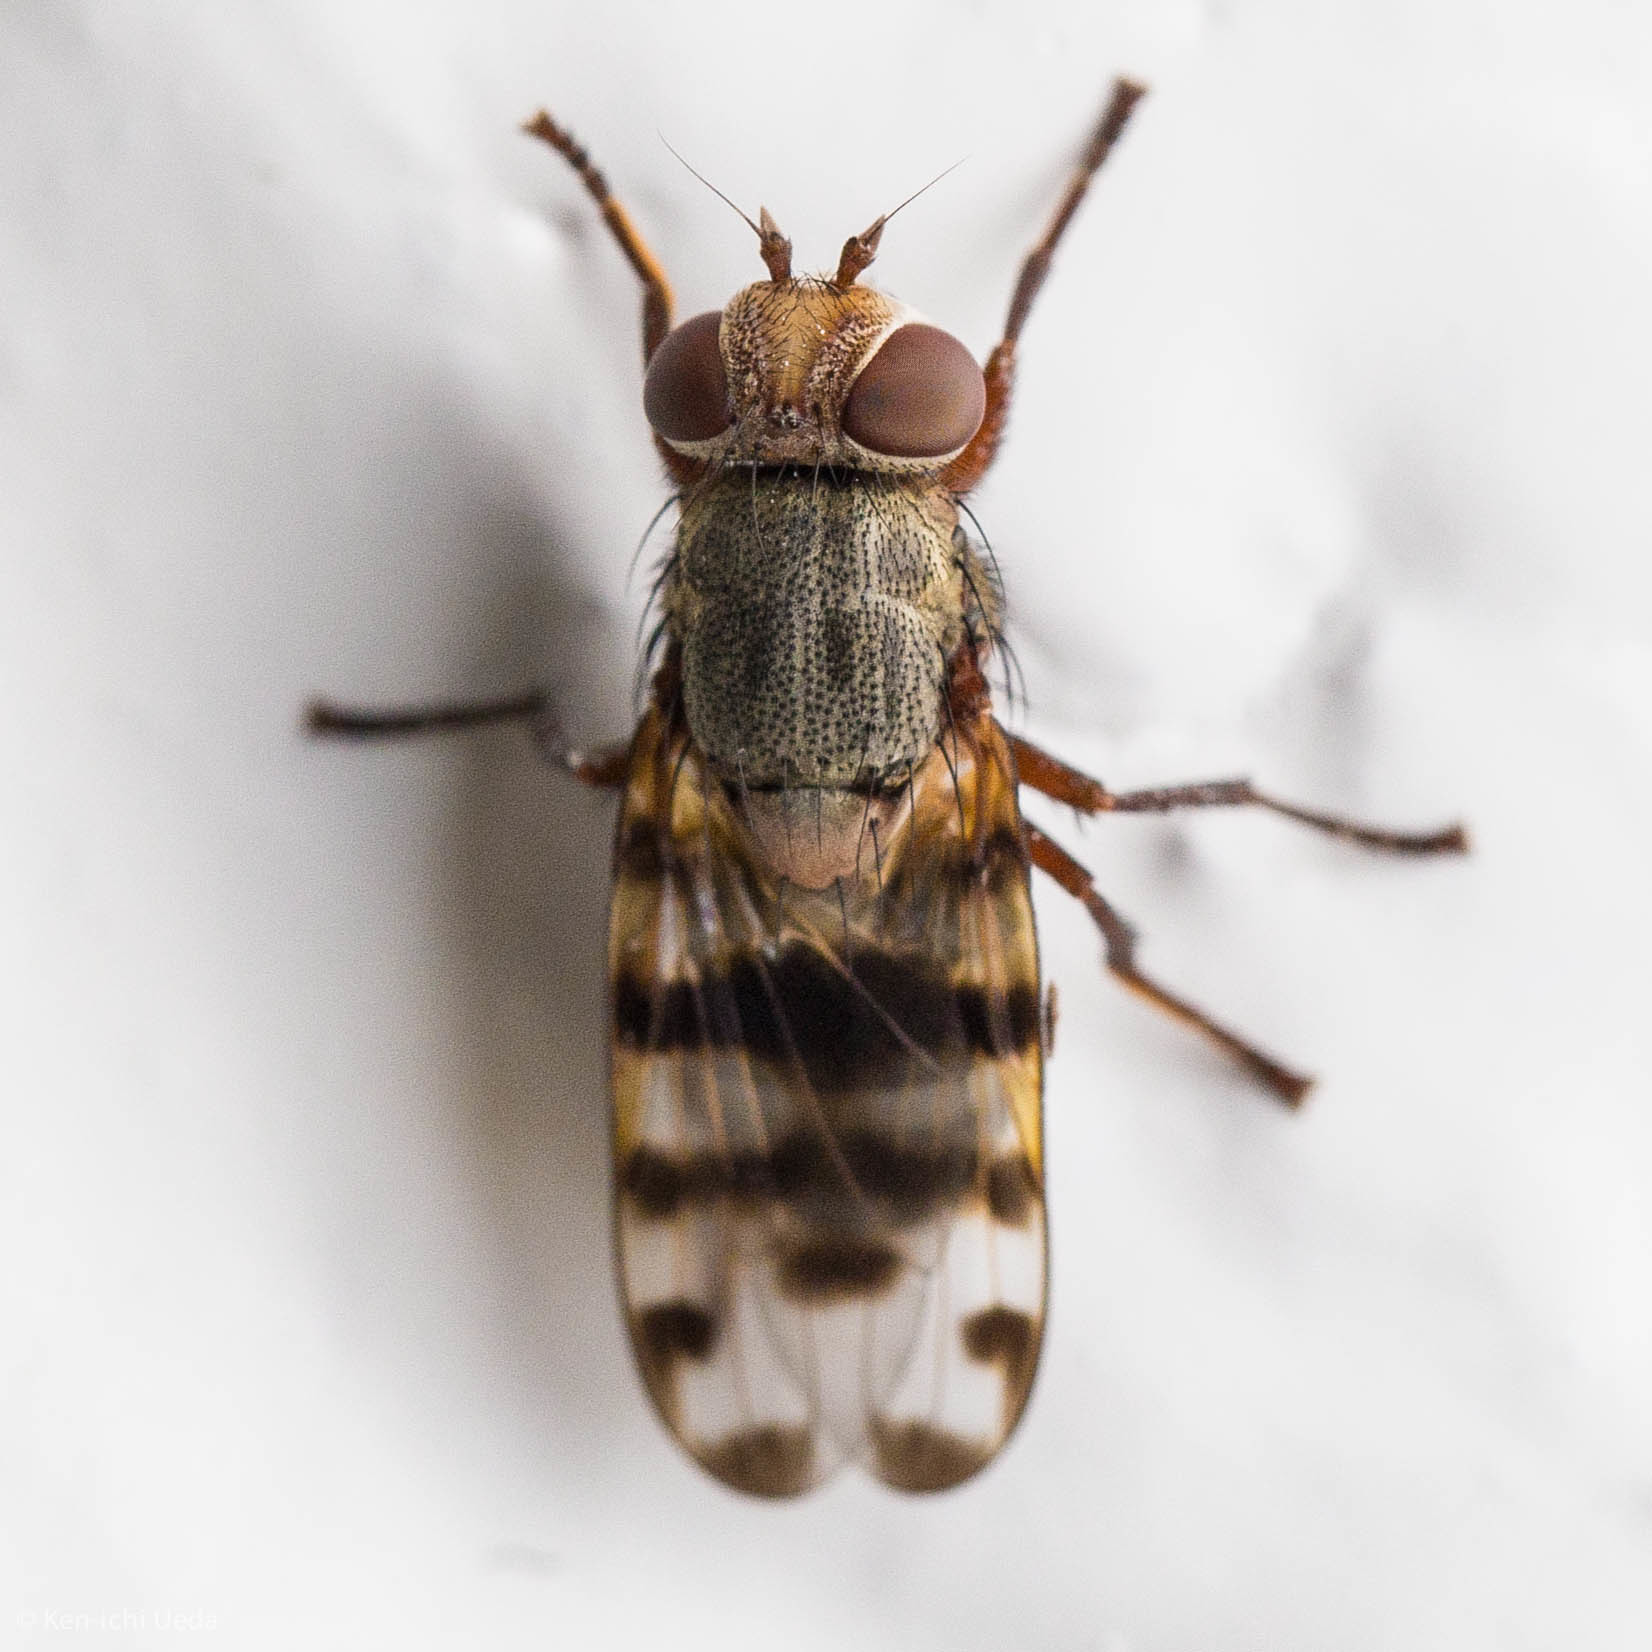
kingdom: Animalia
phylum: Arthropoda
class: Insecta
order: Diptera
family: Ulidiidae
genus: Ceroxys
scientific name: Ceroxys latiusculus
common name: Picture-winged fly
